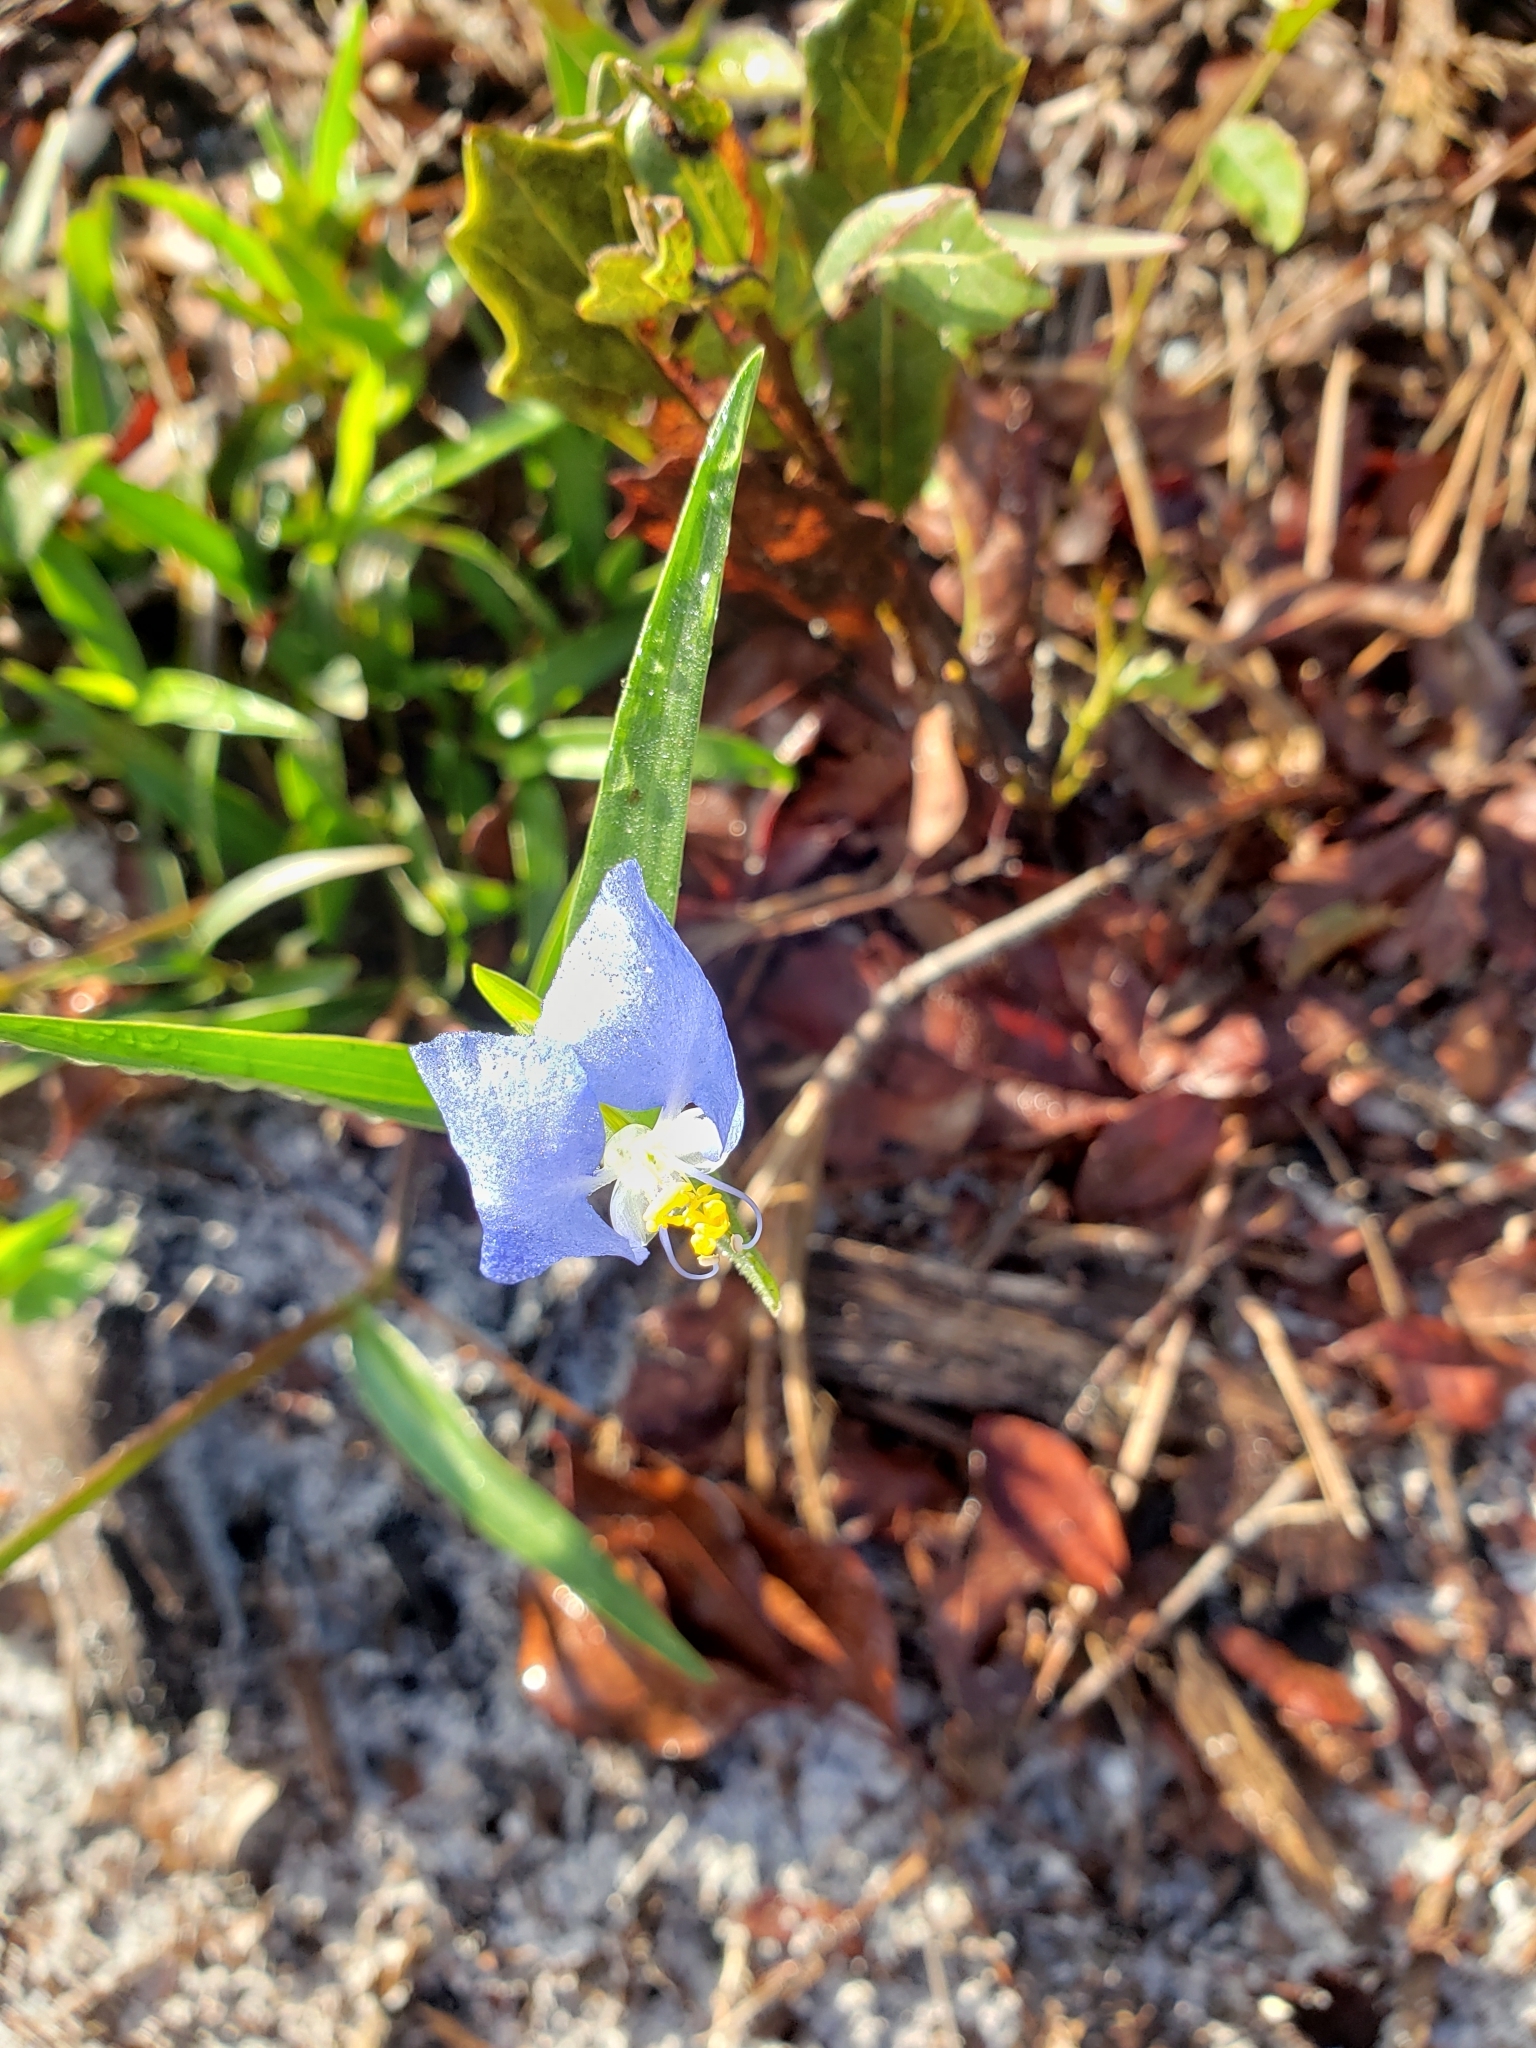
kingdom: Plantae
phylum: Tracheophyta
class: Liliopsida
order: Commelinales
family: Commelinaceae
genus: Commelina
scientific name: Commelina erecta
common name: Blousel blommetjie
